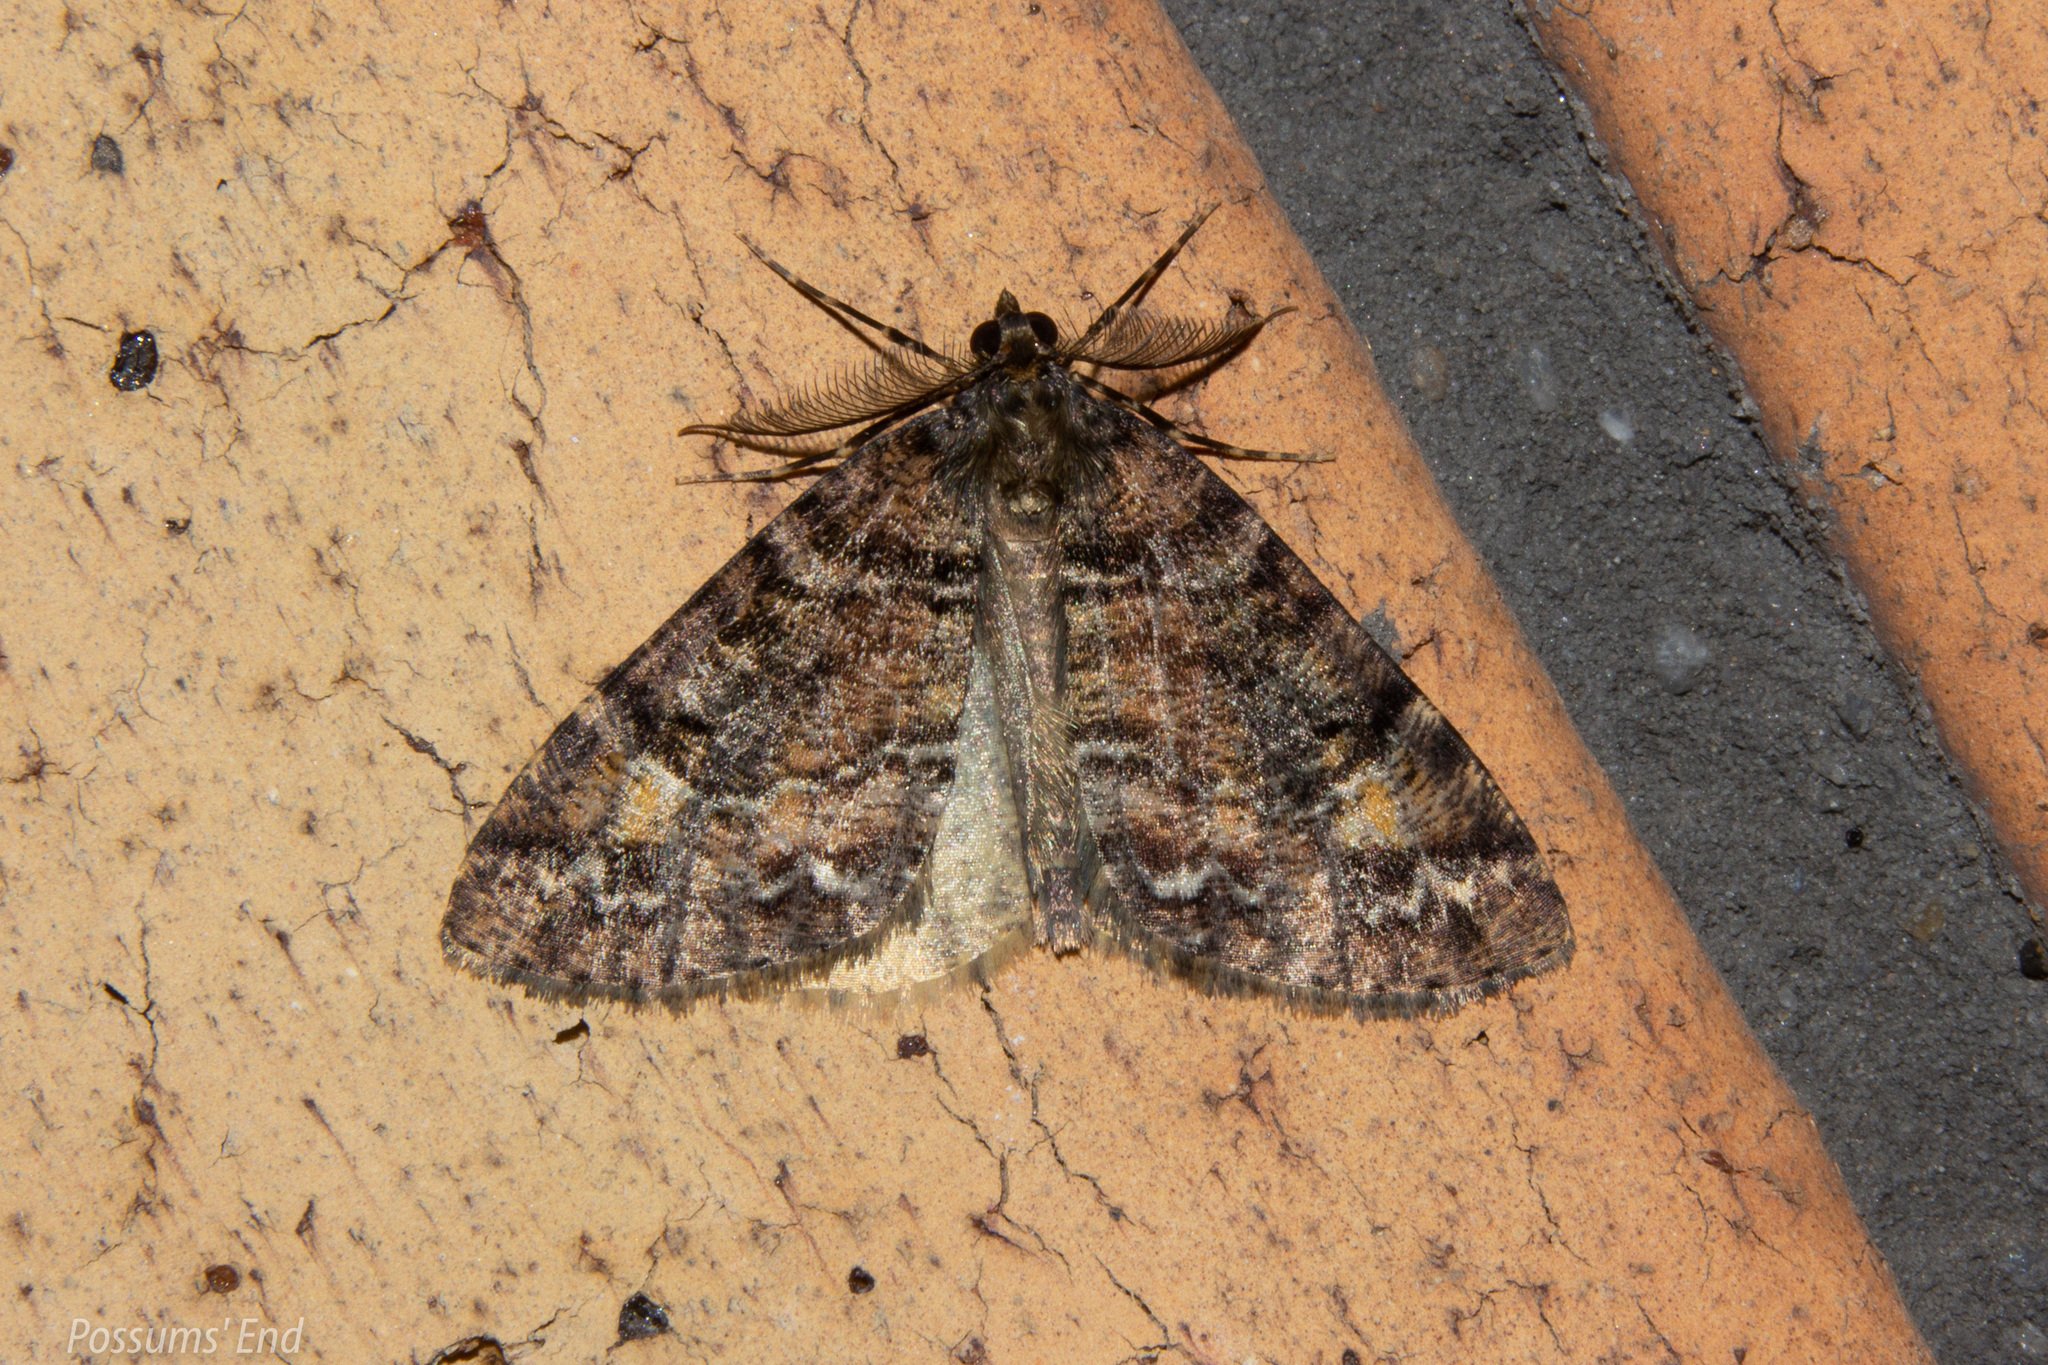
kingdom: Animalia
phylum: Arthropoda
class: Insecta
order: Lepidoptera
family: Geometridae
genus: Pseudocoremia
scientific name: Pseudocoremia productata
